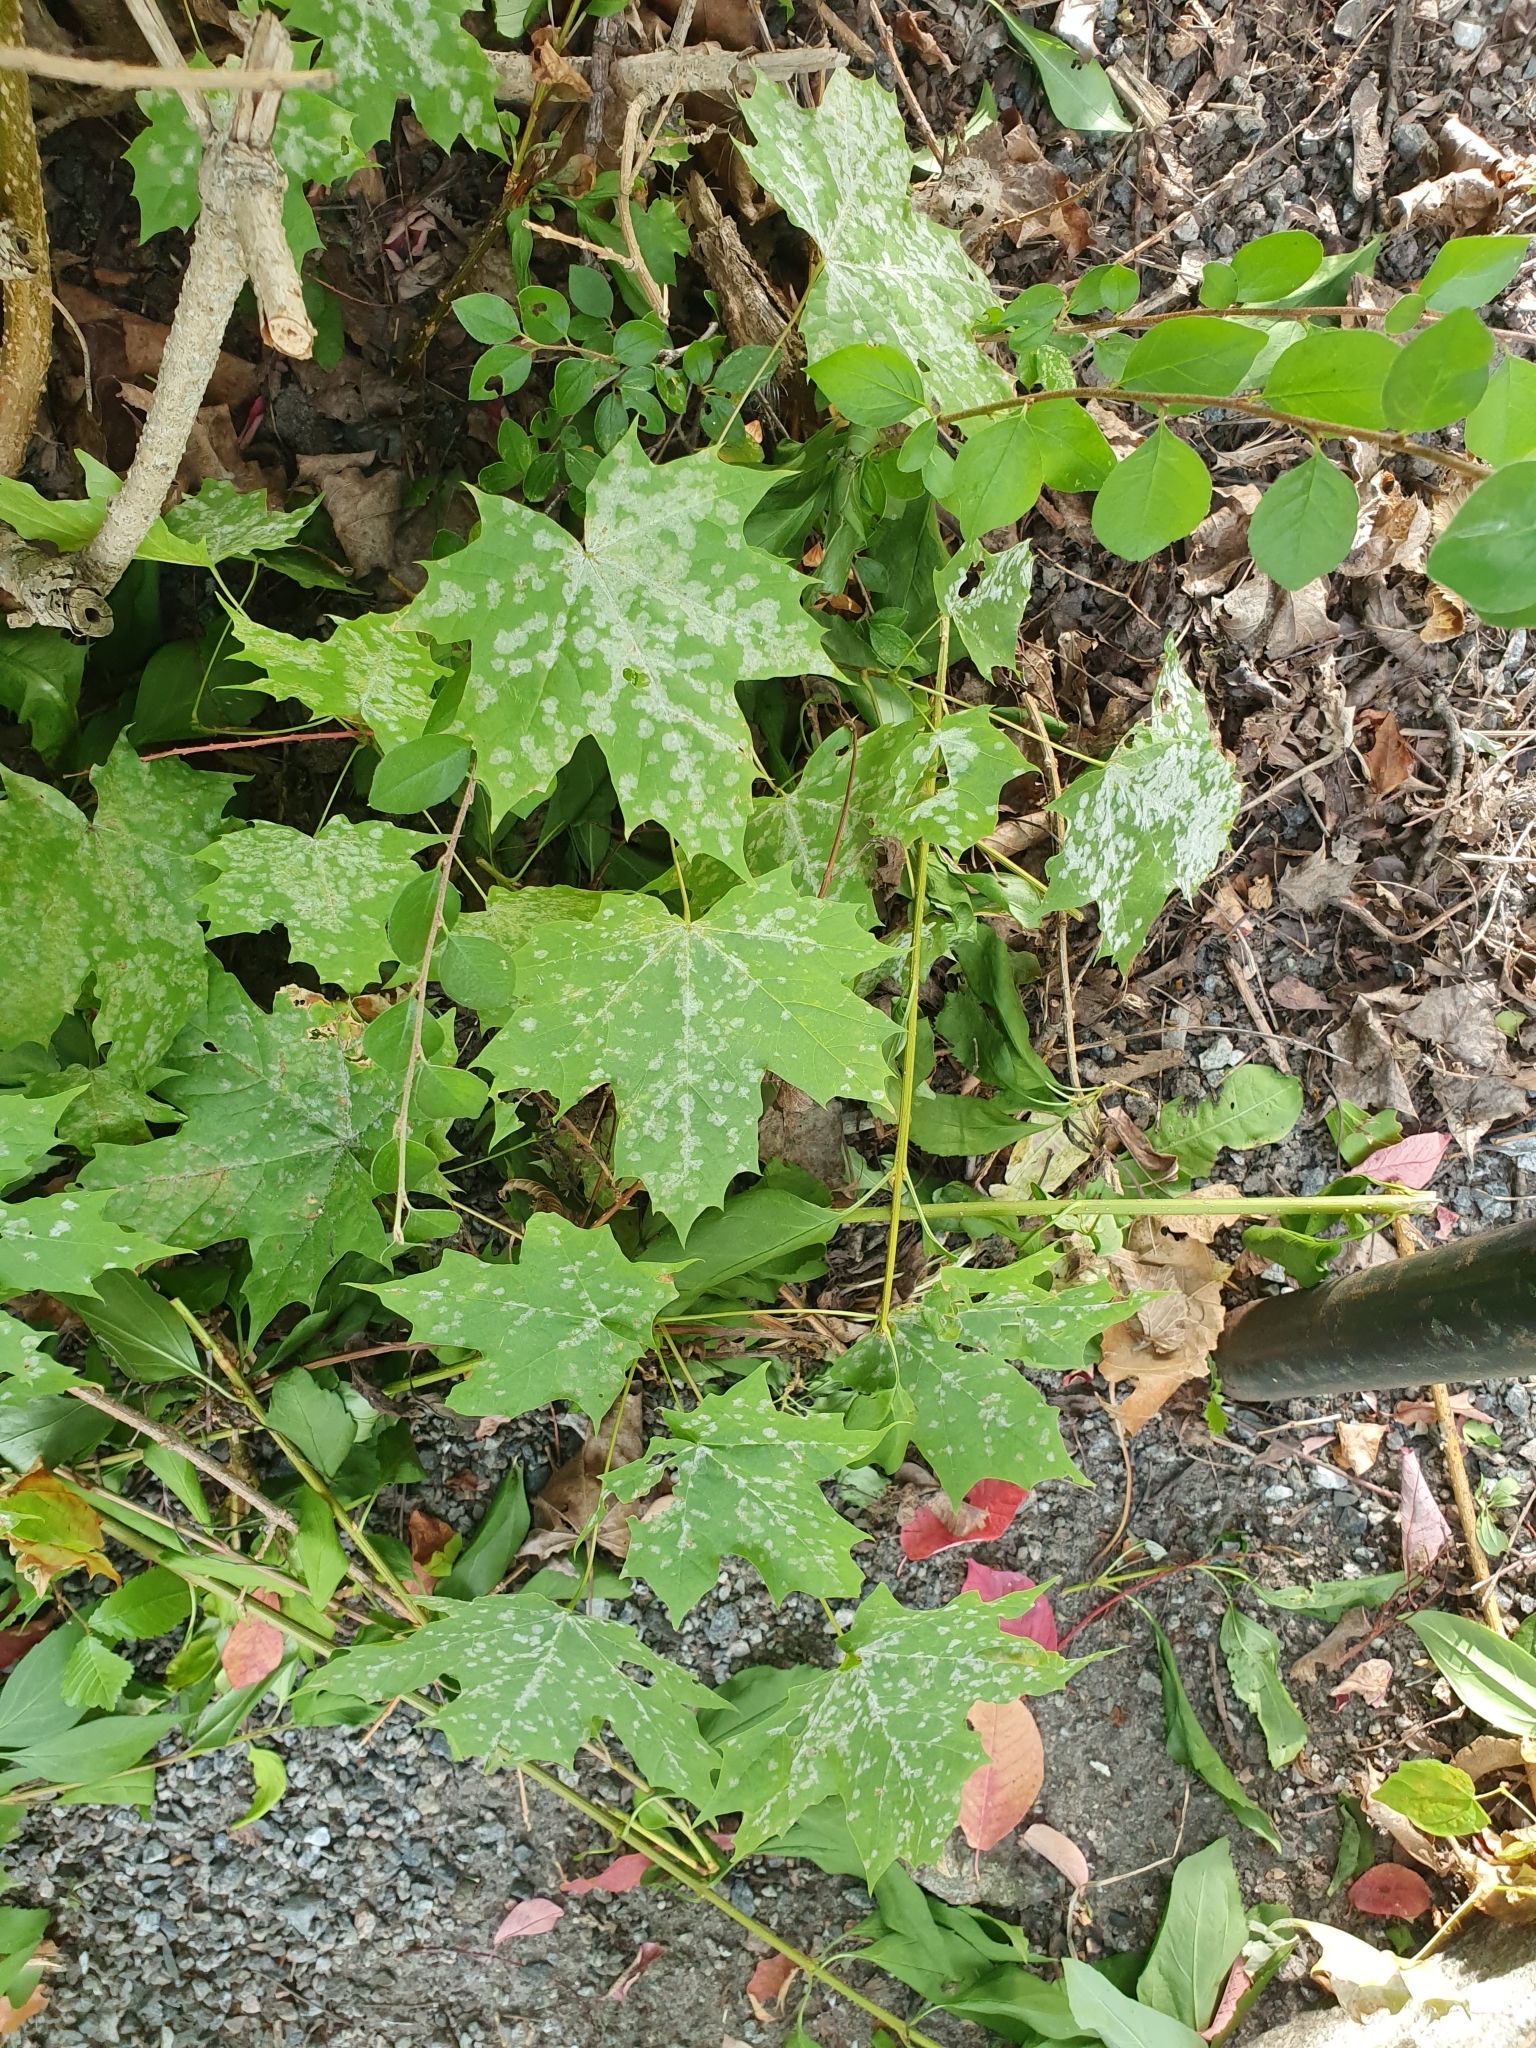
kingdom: Fungi
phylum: Ascomycota
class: Leotiomycetes
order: Helotiales
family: Erysiphaceae
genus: Sawadaea
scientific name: Sawadaea tulasnei
